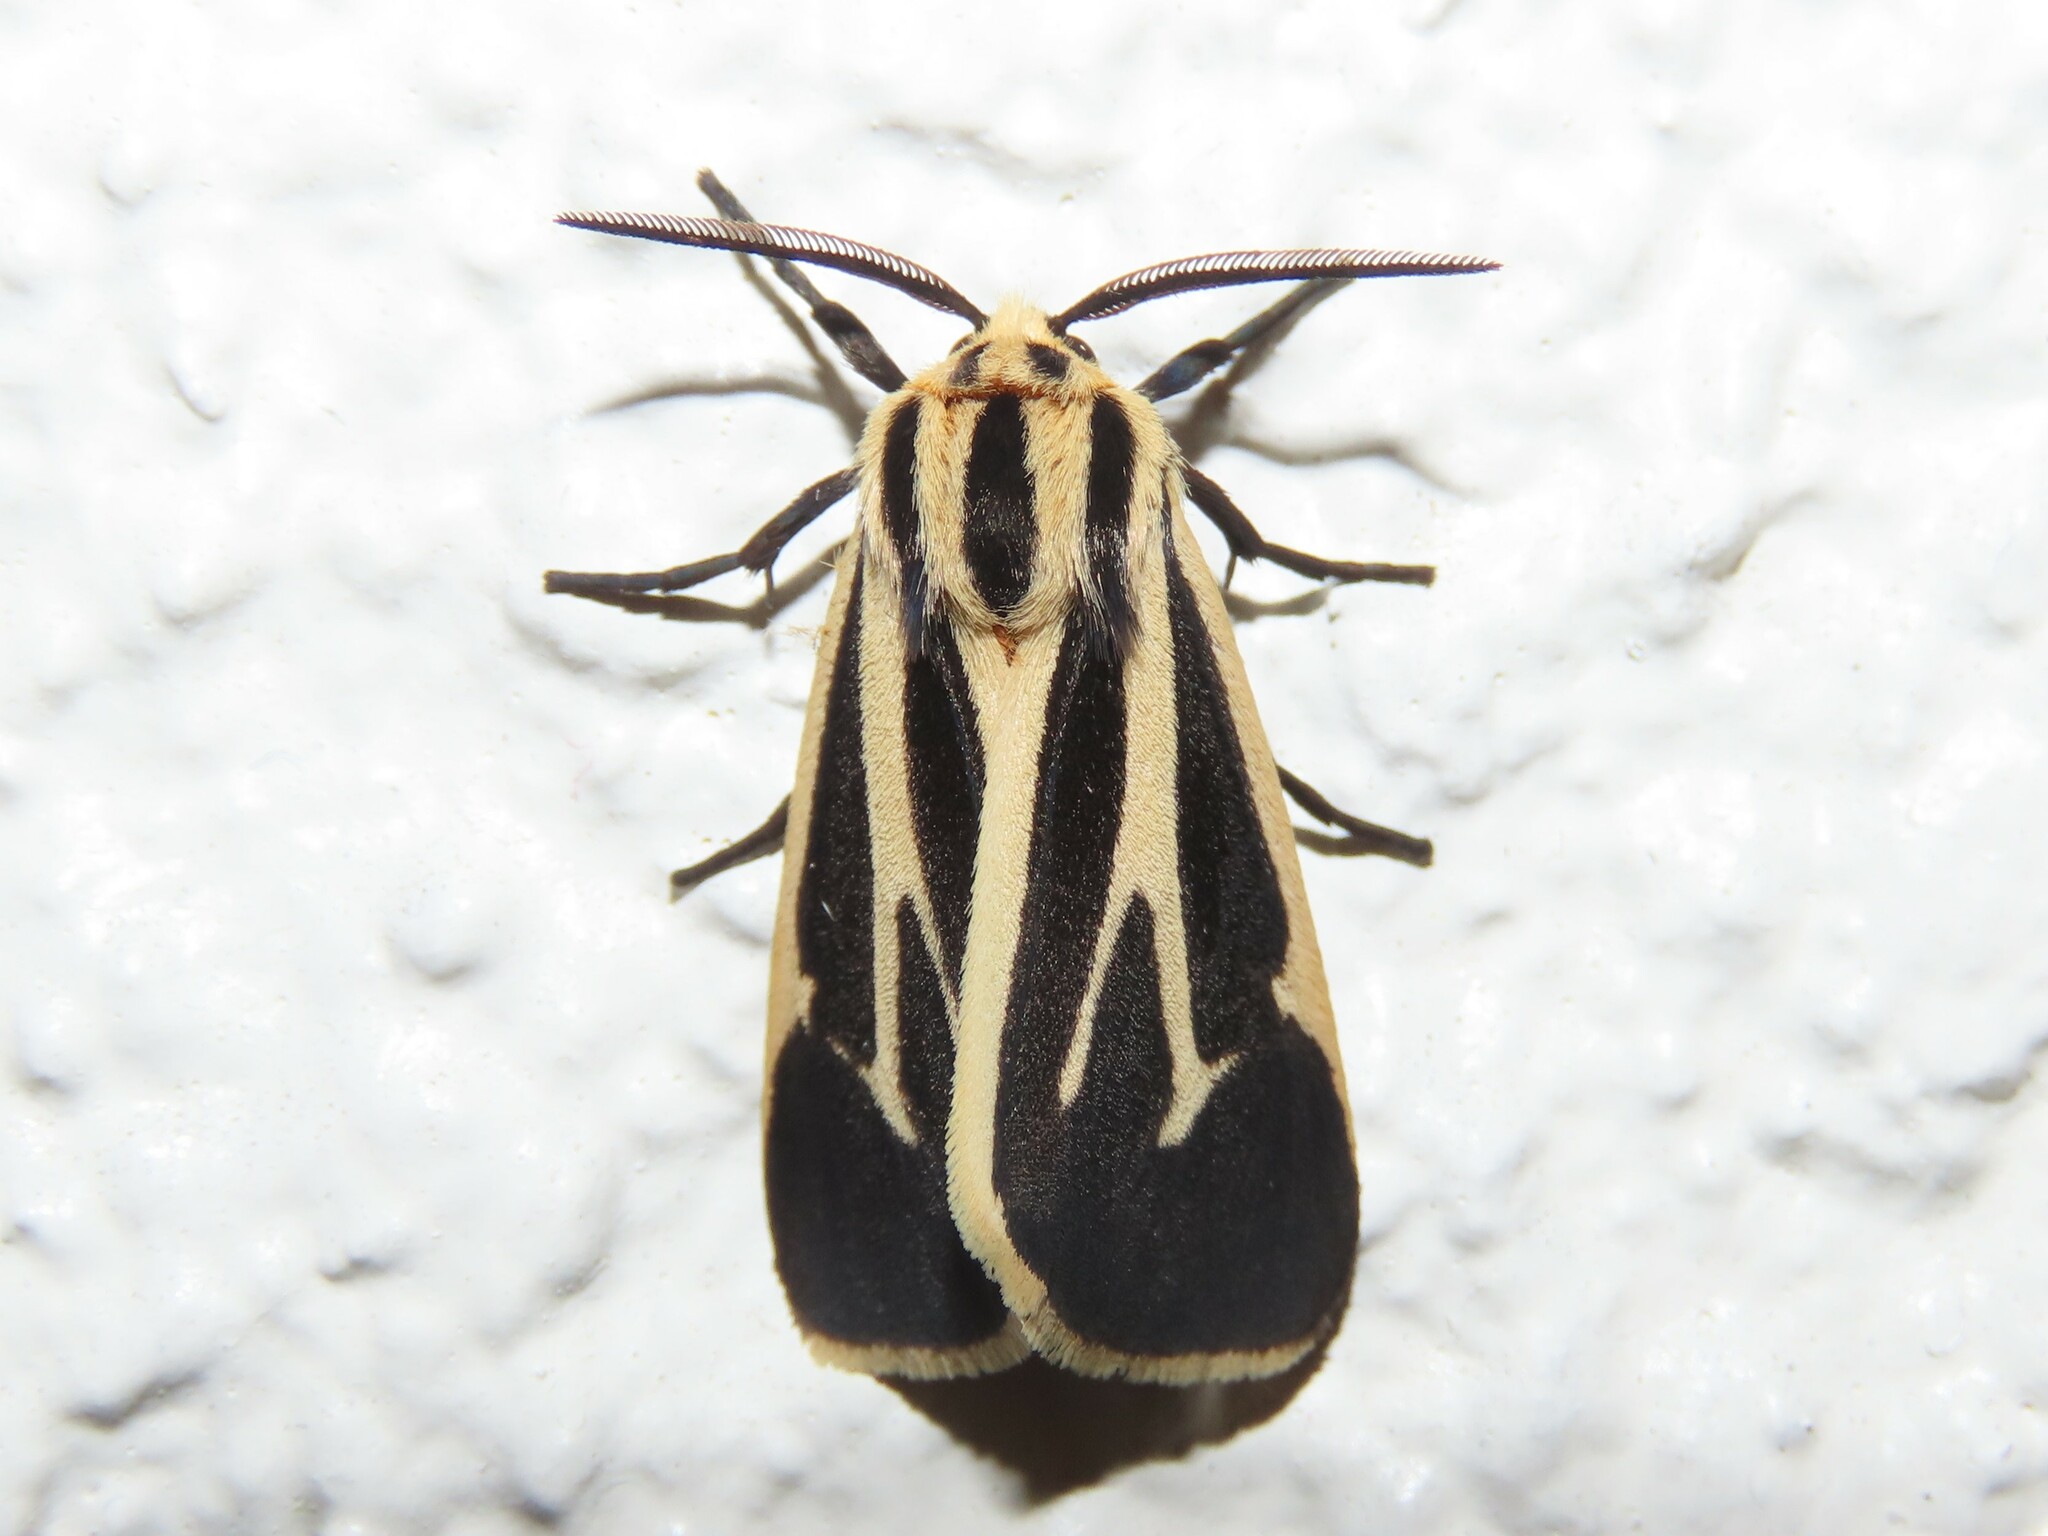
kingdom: Animalia
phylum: Arthropoda
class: Insecta
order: Lepidoptera
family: Erebidae
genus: Apantesis
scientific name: Apantesis vittata
